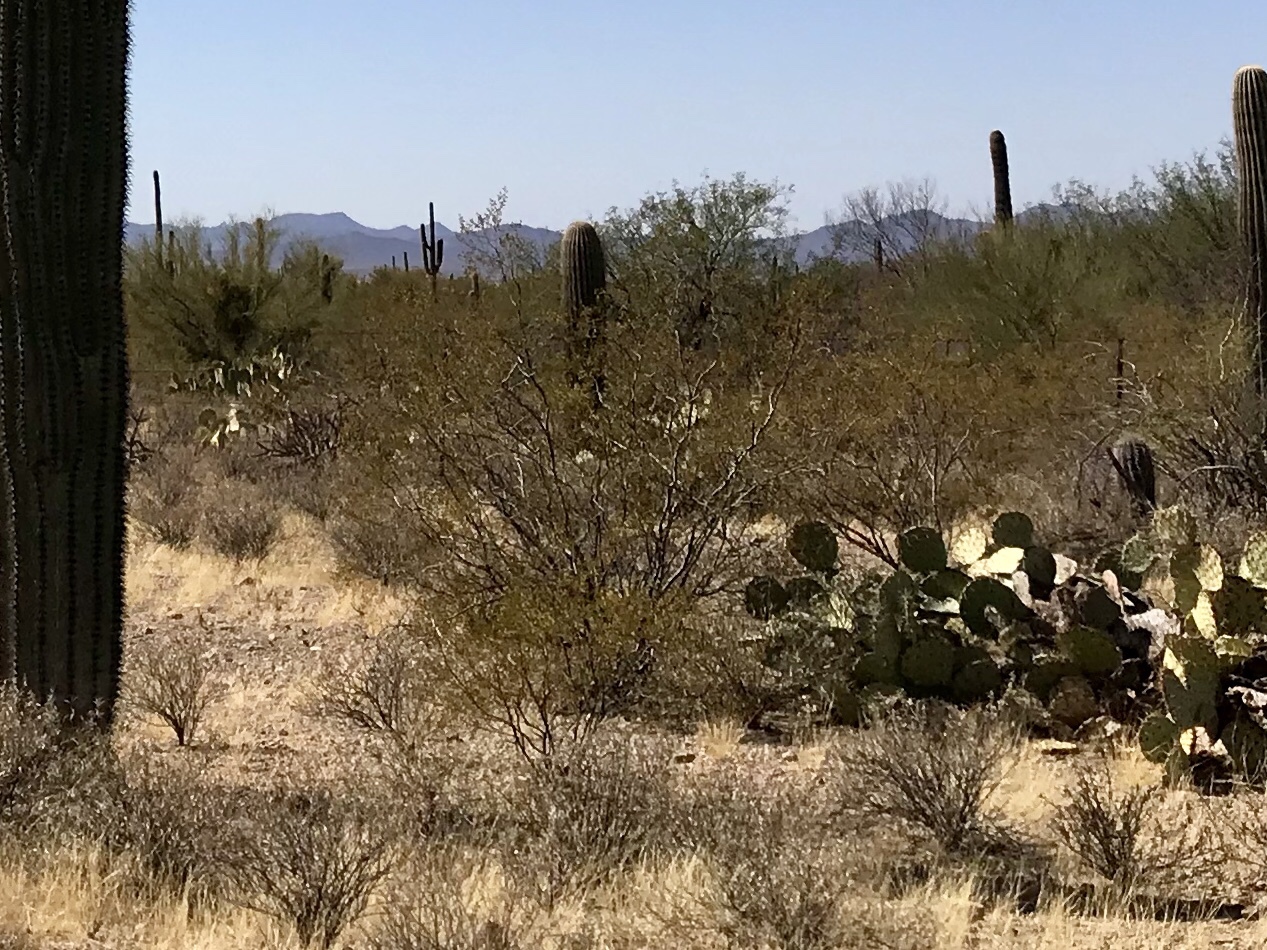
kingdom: Plantae
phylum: Tracheophyta
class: Magnoliopsida
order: Zygophyllales
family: Zygophyllaceae
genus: Larrea
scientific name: Larrea tridentata
